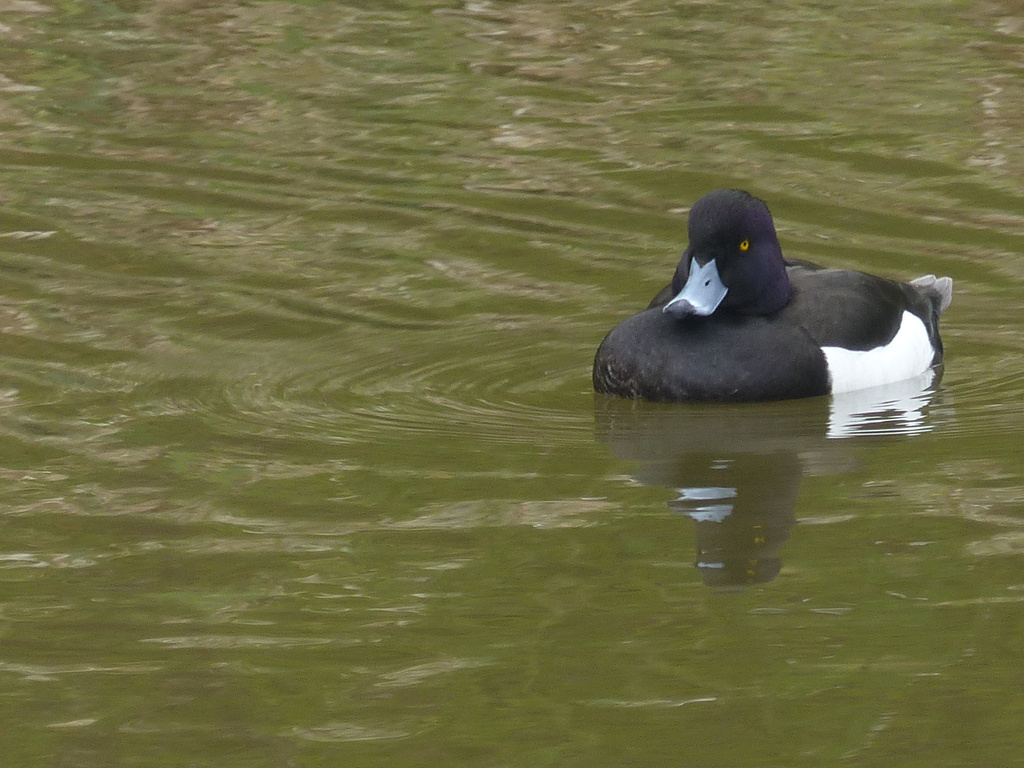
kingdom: Animalia
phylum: Chordata
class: Aves
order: Anseriformes
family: Anatidae
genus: Aythya
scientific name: Aythya fuligula
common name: Tufted duck
